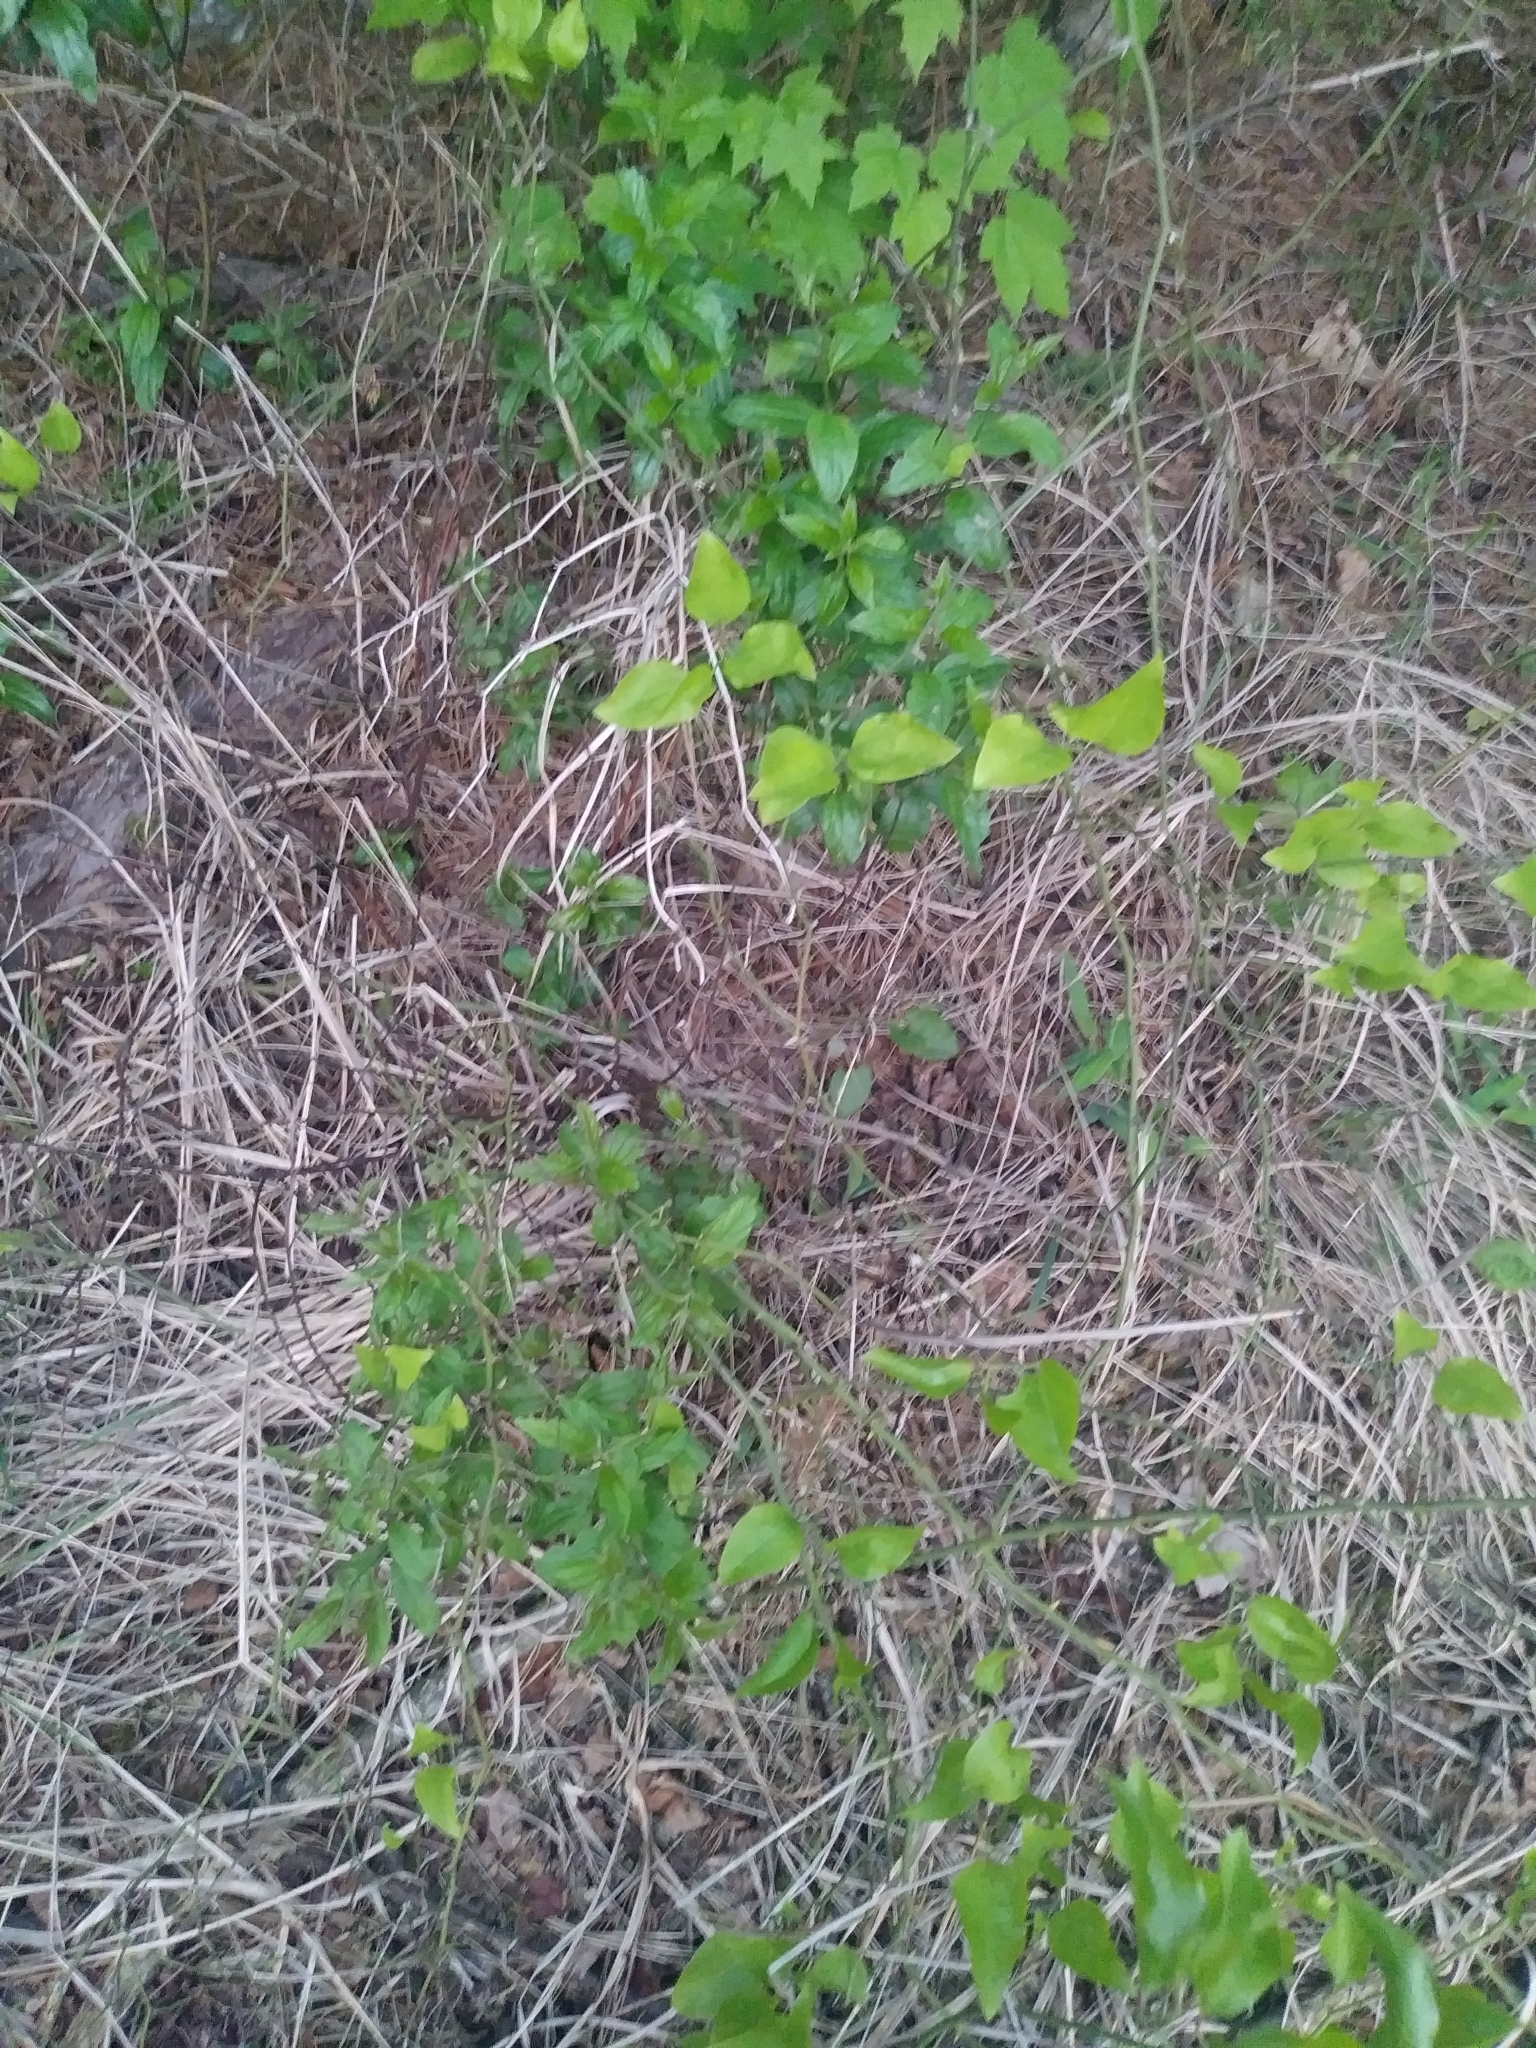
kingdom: Plantae
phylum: Tracheophyta
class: Magnoliopsida
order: Rosales
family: Rhamnaceae
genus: Ceanothus
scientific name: Ceanothus americanus
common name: Redroot
